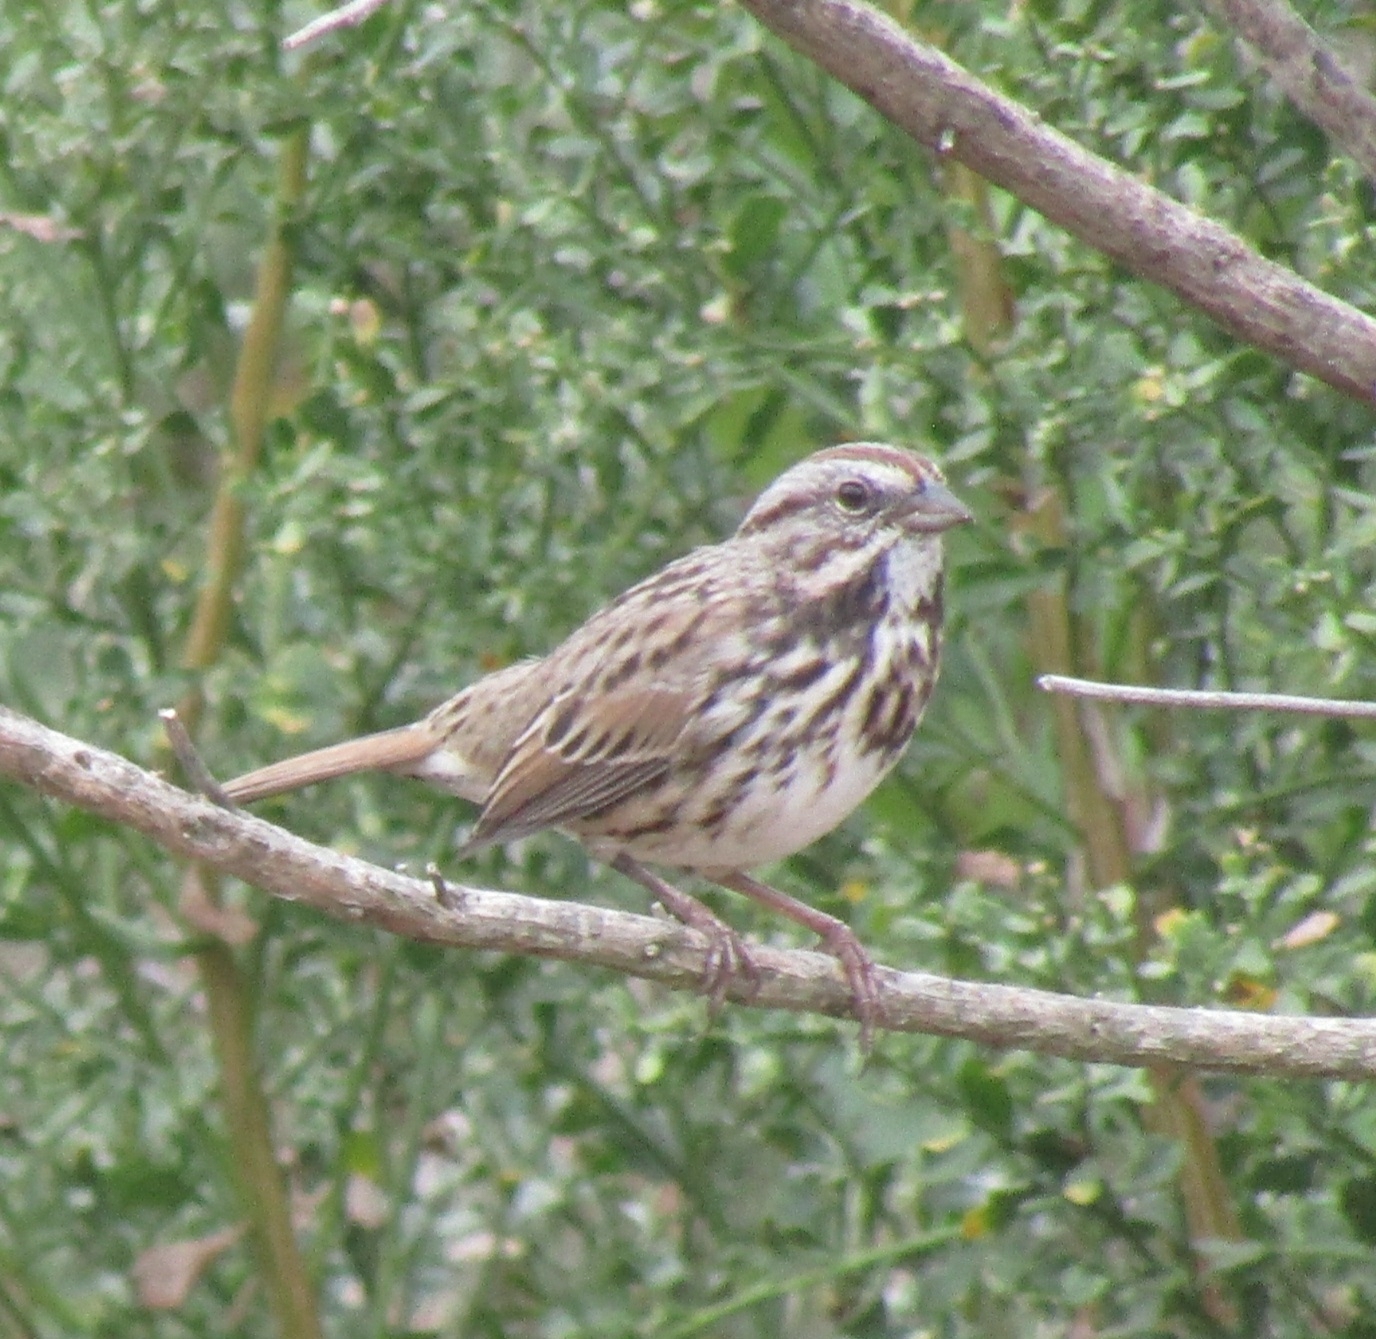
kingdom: Animalia
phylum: Chordata
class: Aves
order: Passeriformes
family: Passerellidae
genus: Melospiza
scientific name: Melospiza melodia
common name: Song sparrow
